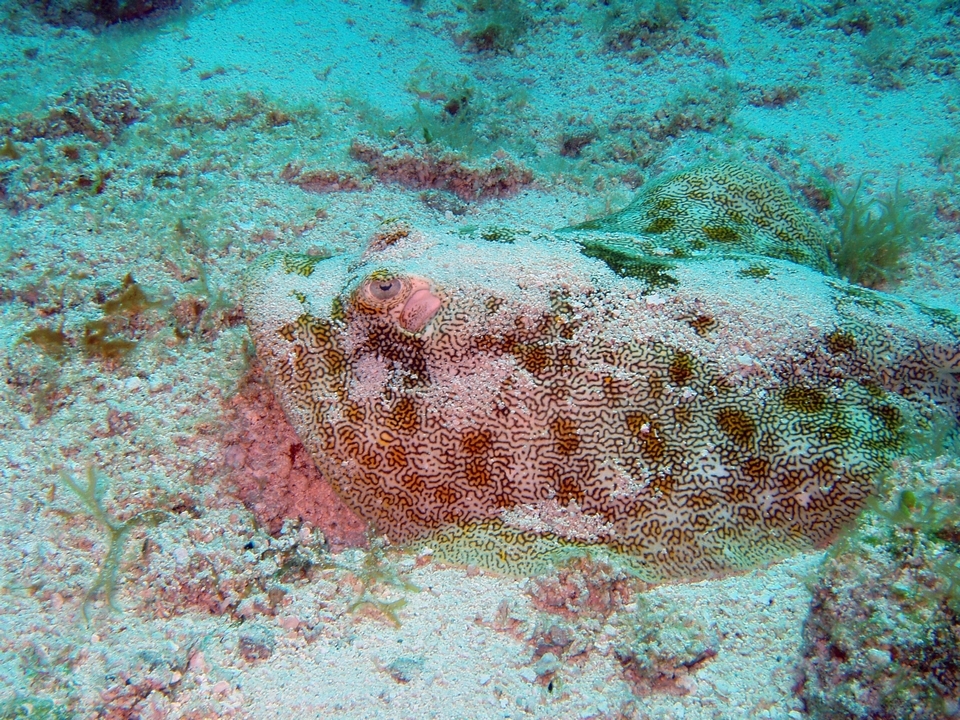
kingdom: Animalia
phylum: Chordata
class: Elasmobranchii
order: Myliobatiformes
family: Urotrygonidae
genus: Urobatis
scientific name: Urobatis jamaicensis
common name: Yellow stingray
